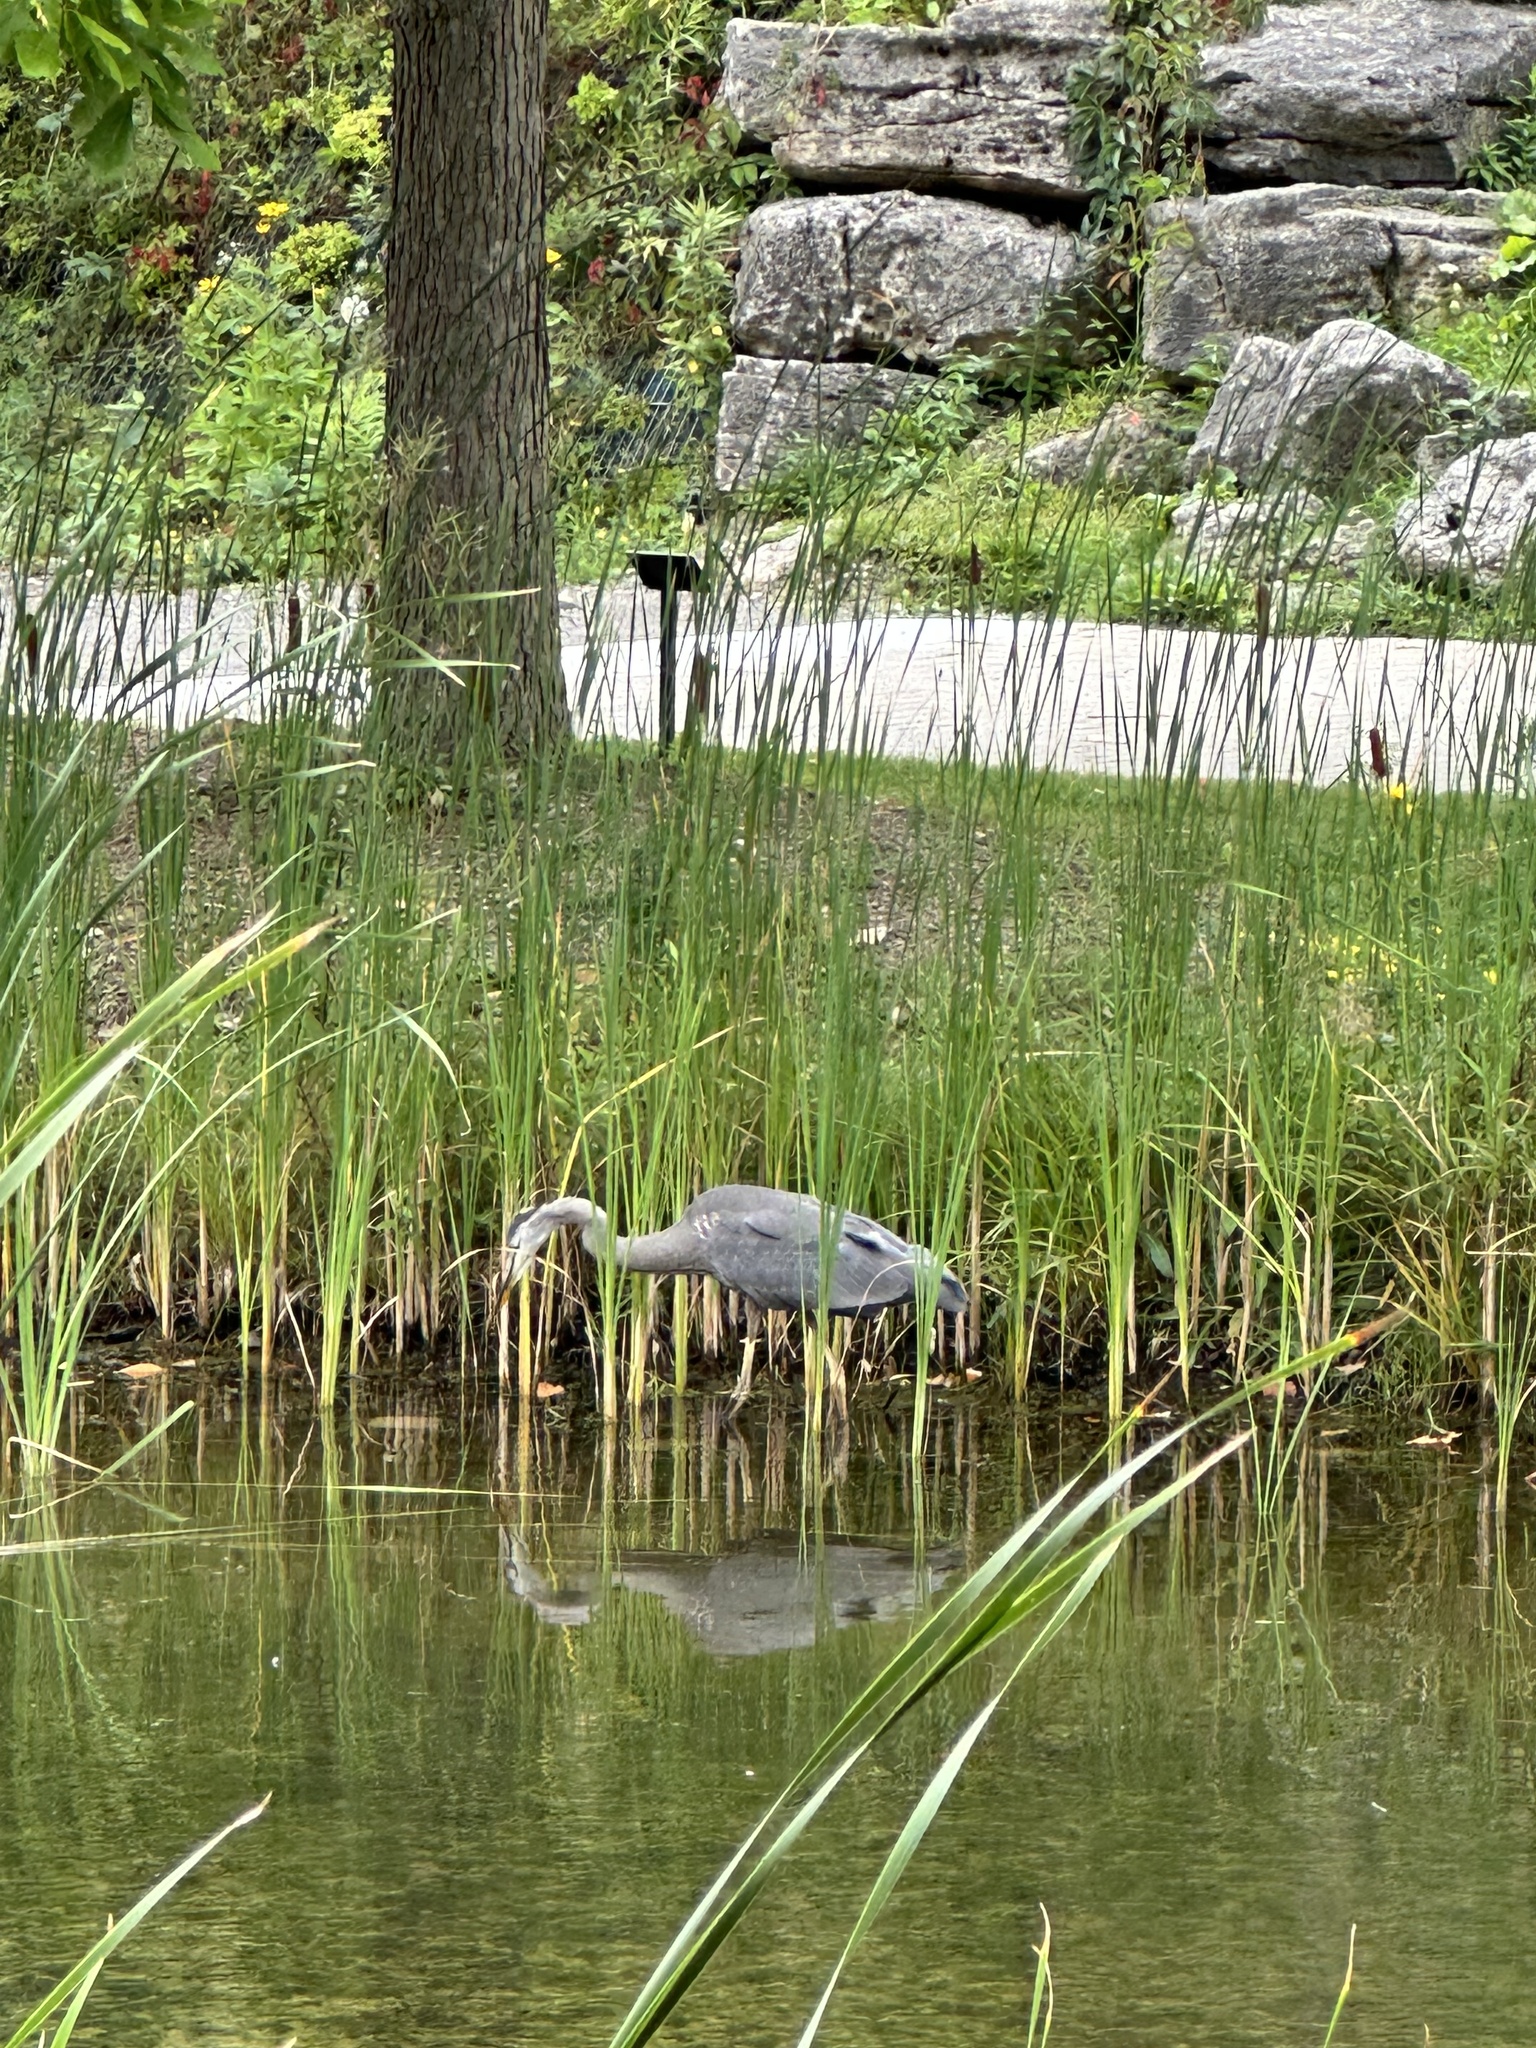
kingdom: Animalia
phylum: Chordata
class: Aves
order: Pelecaniformes
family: Ardeidae
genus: Ardea
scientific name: Ardea herodias
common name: Great blue heron
